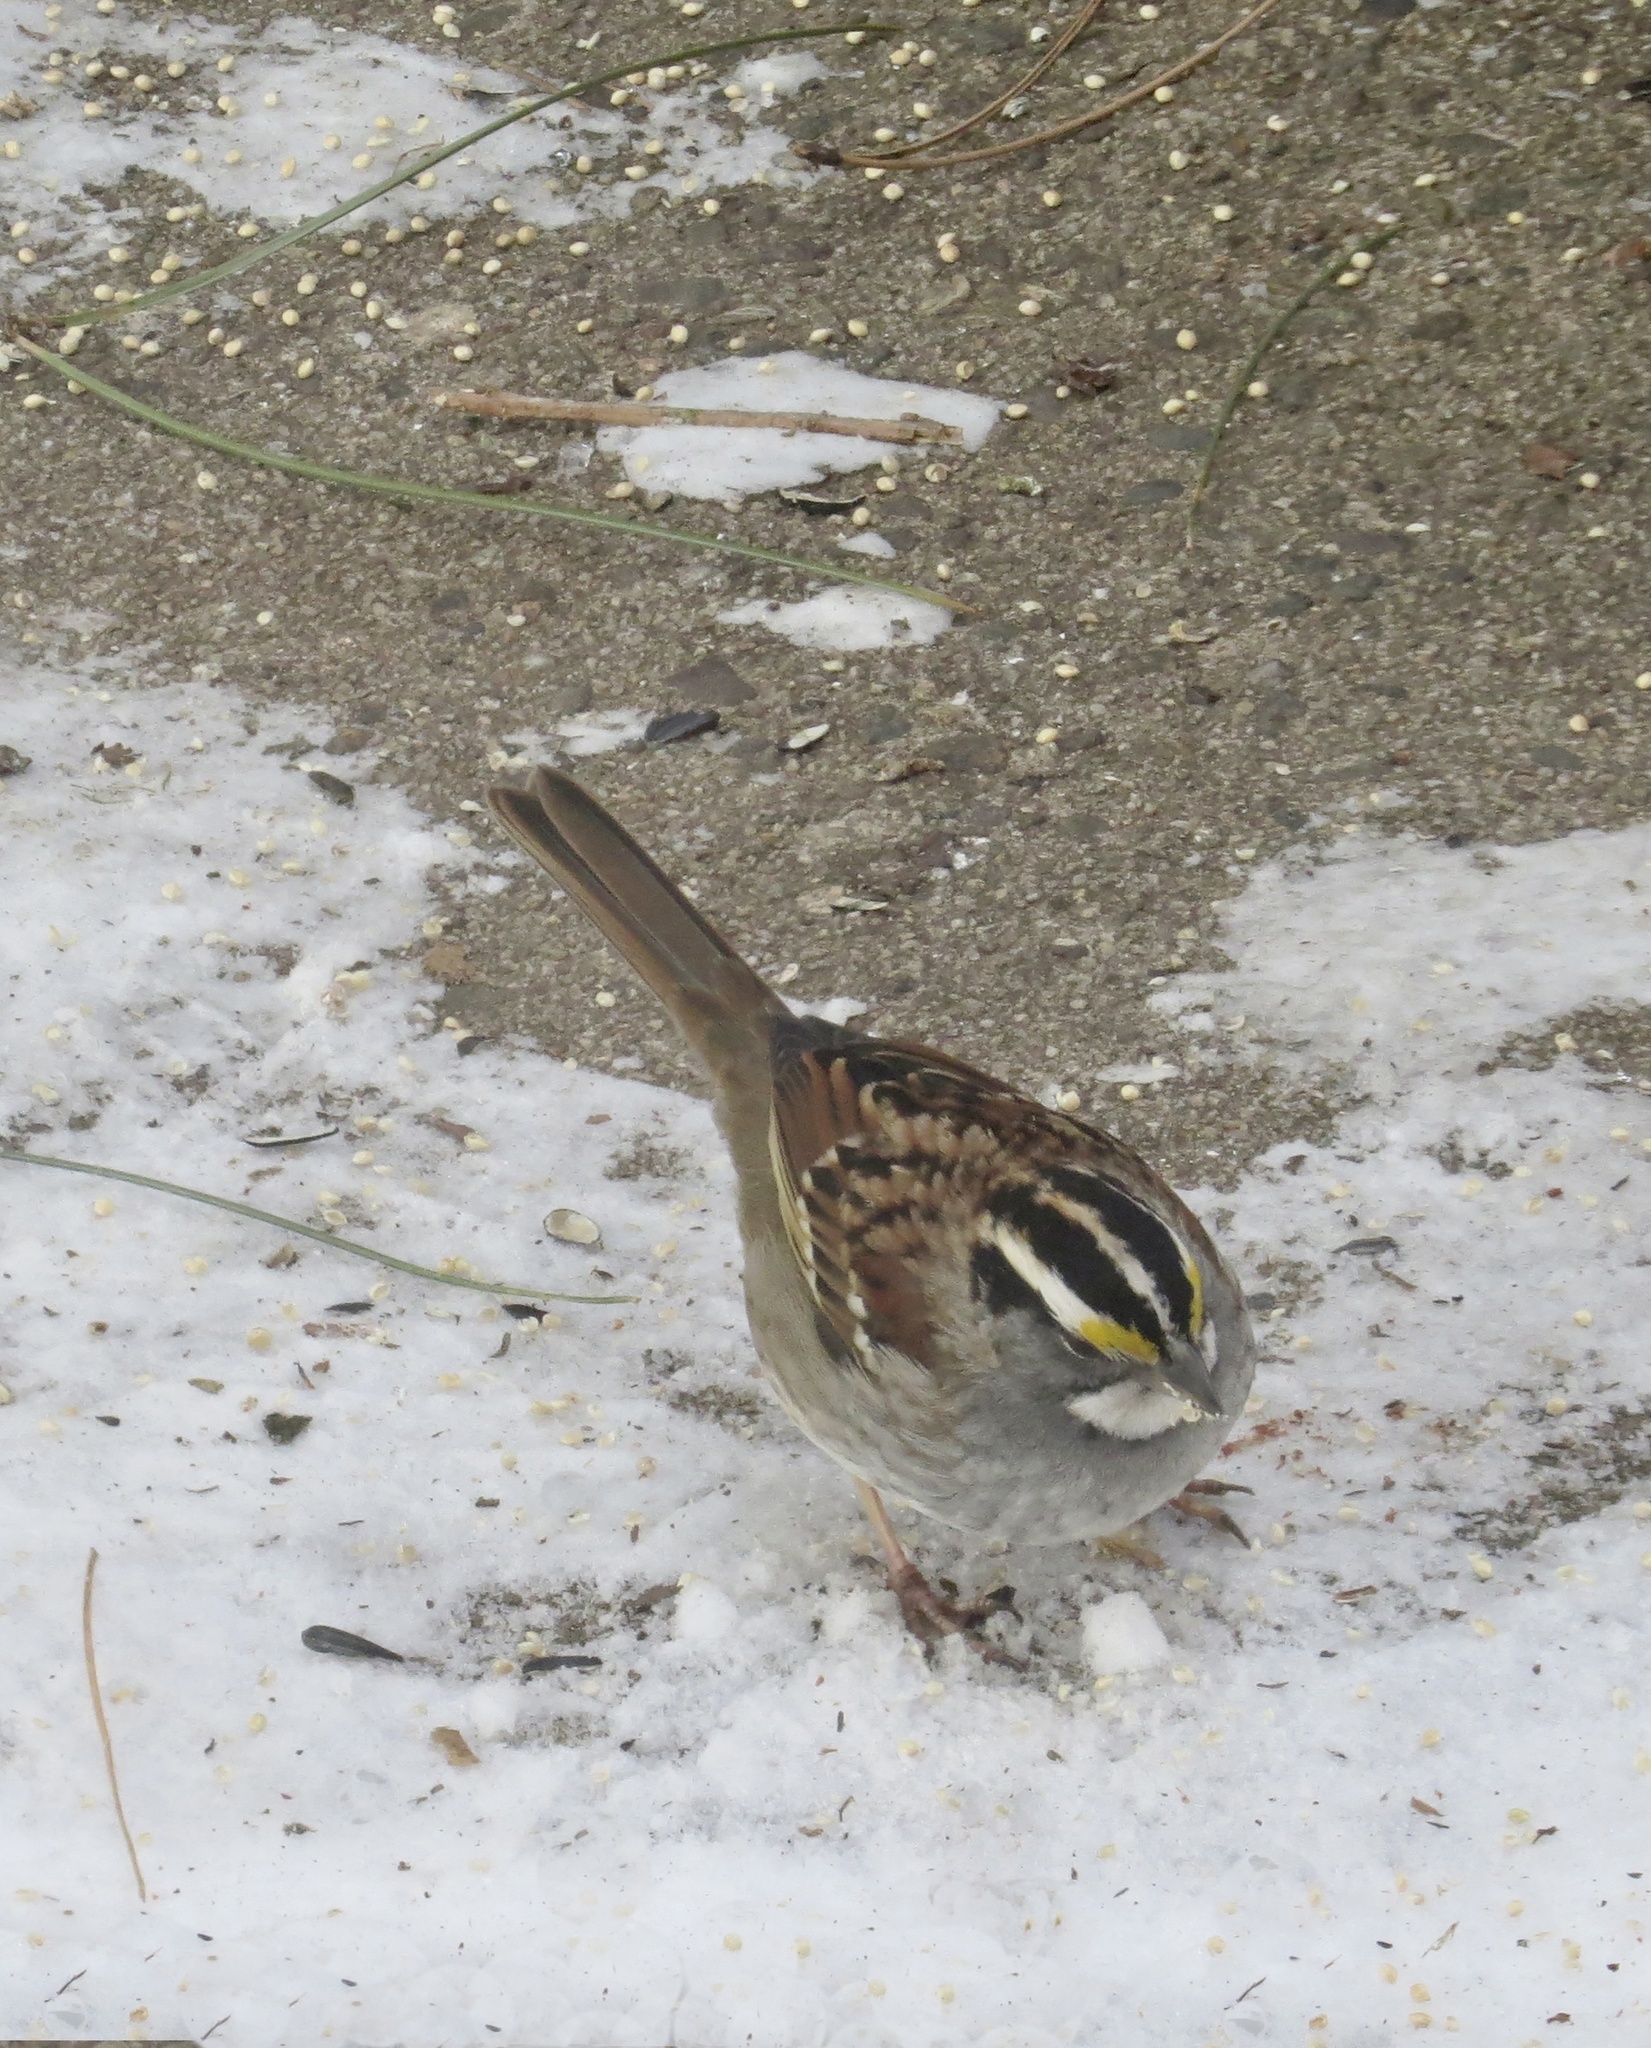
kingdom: Animalia
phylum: Chordata
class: Aves
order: Passeriformes
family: Passerellidae
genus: Zonotrichia
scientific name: Zonotrichia albicollis
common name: White-throated sparrow
